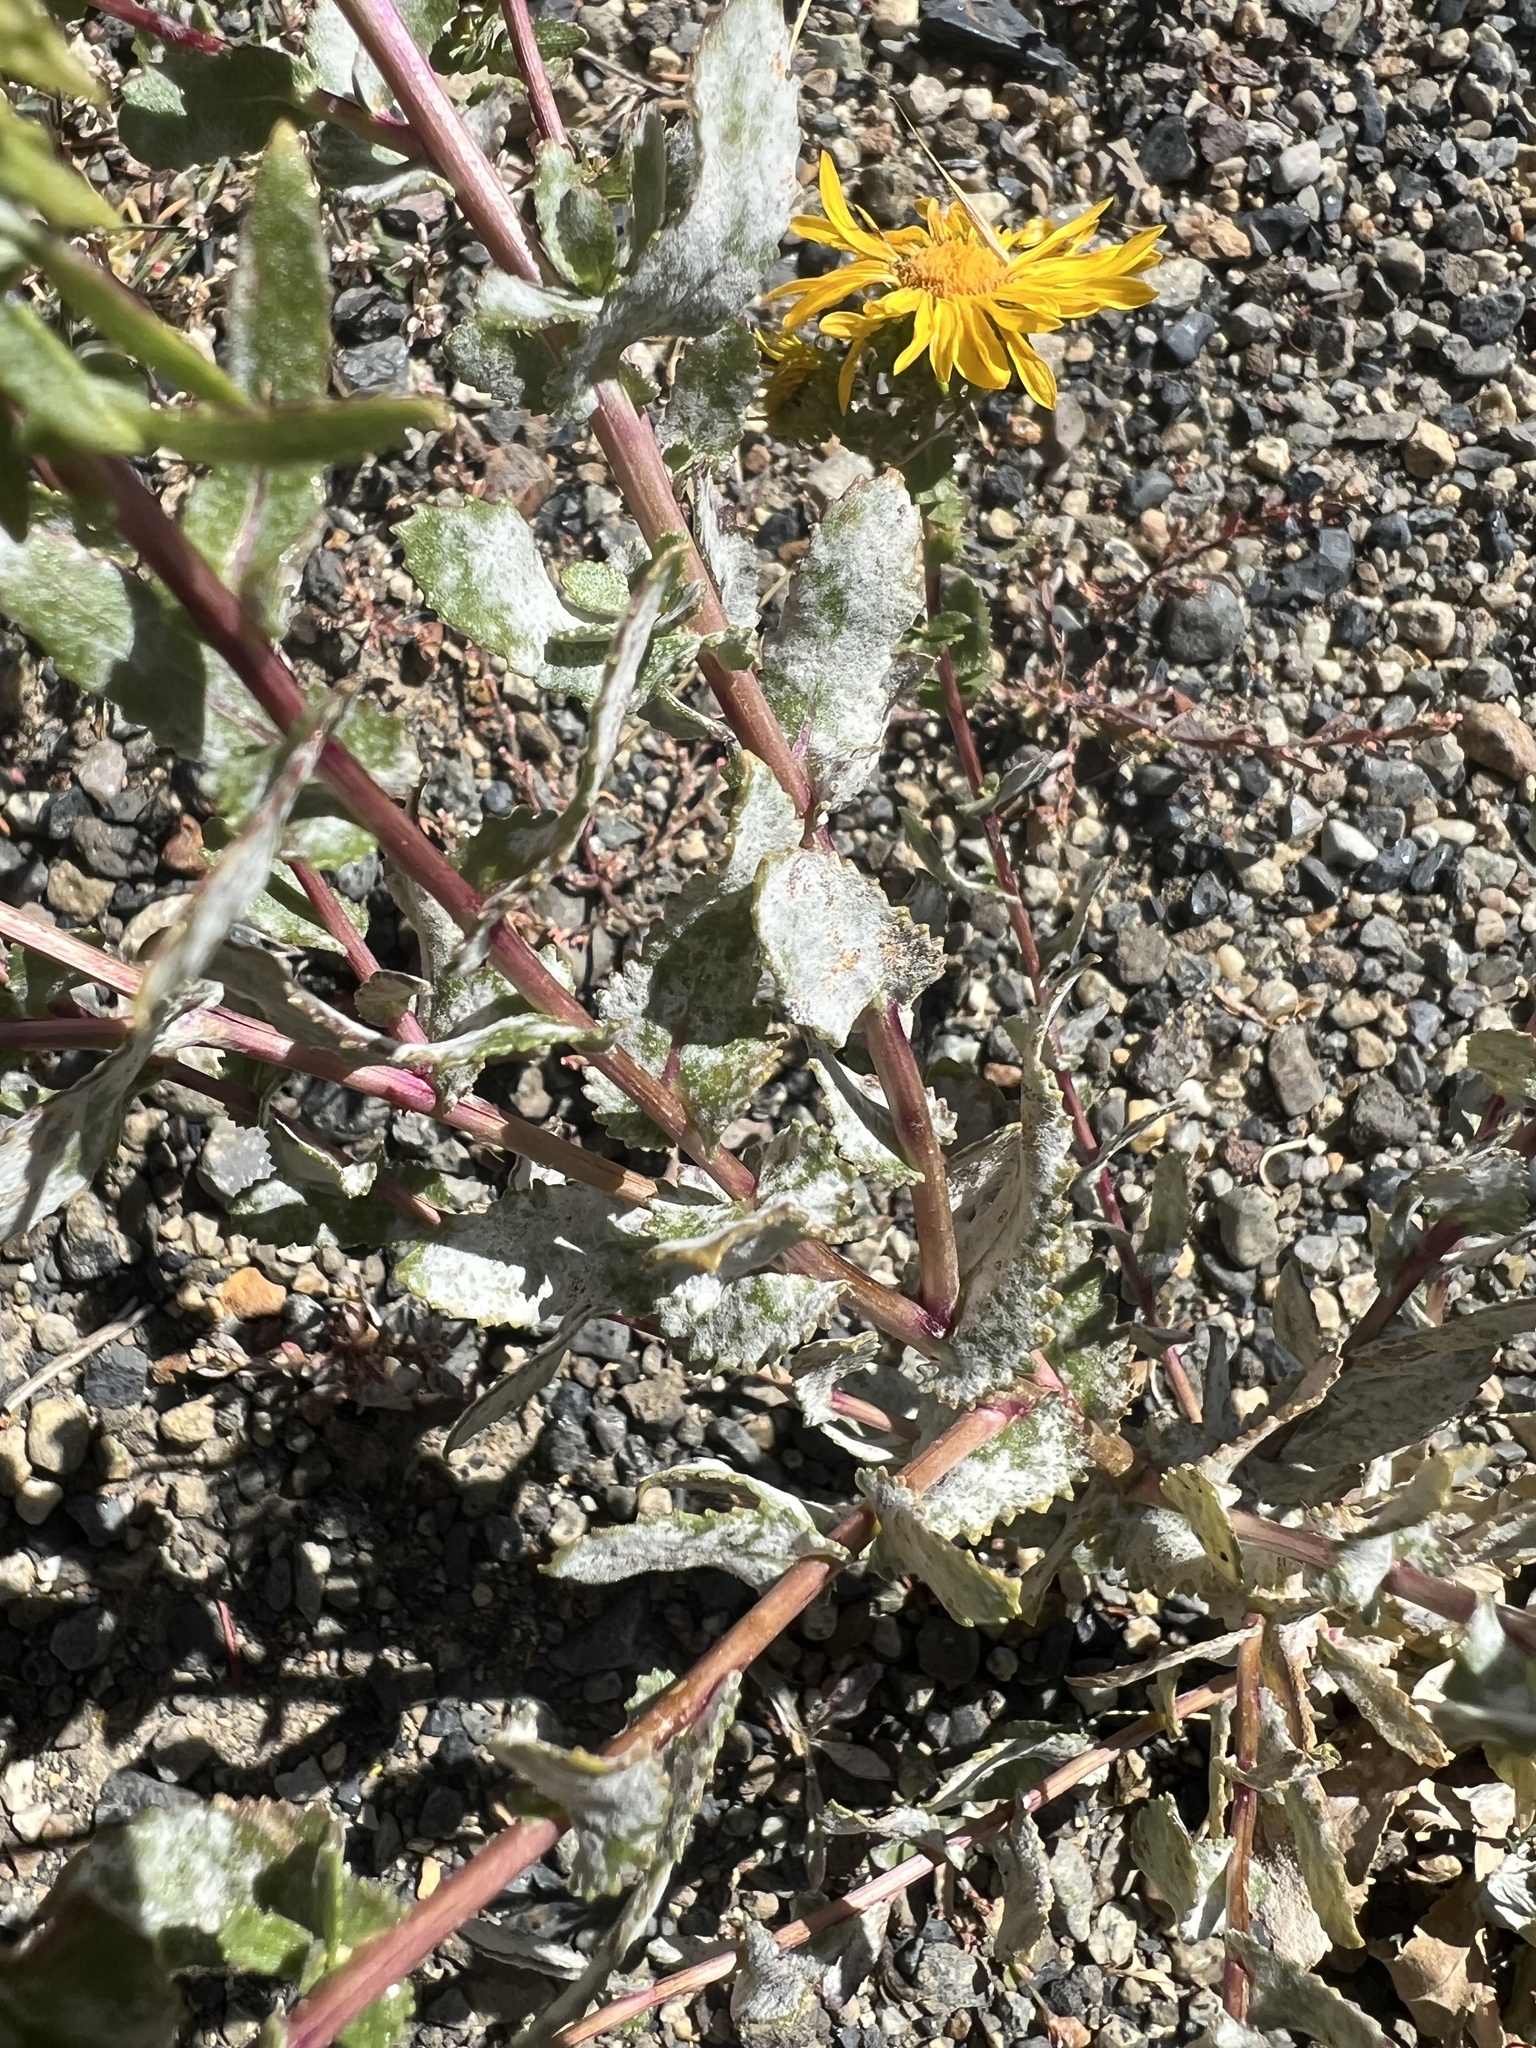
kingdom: Plantae
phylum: Tracheophyta
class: Magnoliopsida
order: Asterales
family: Asteraceae
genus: Grindelia
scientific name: Grindelia squarrosa
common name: Curly-cup gumweed
